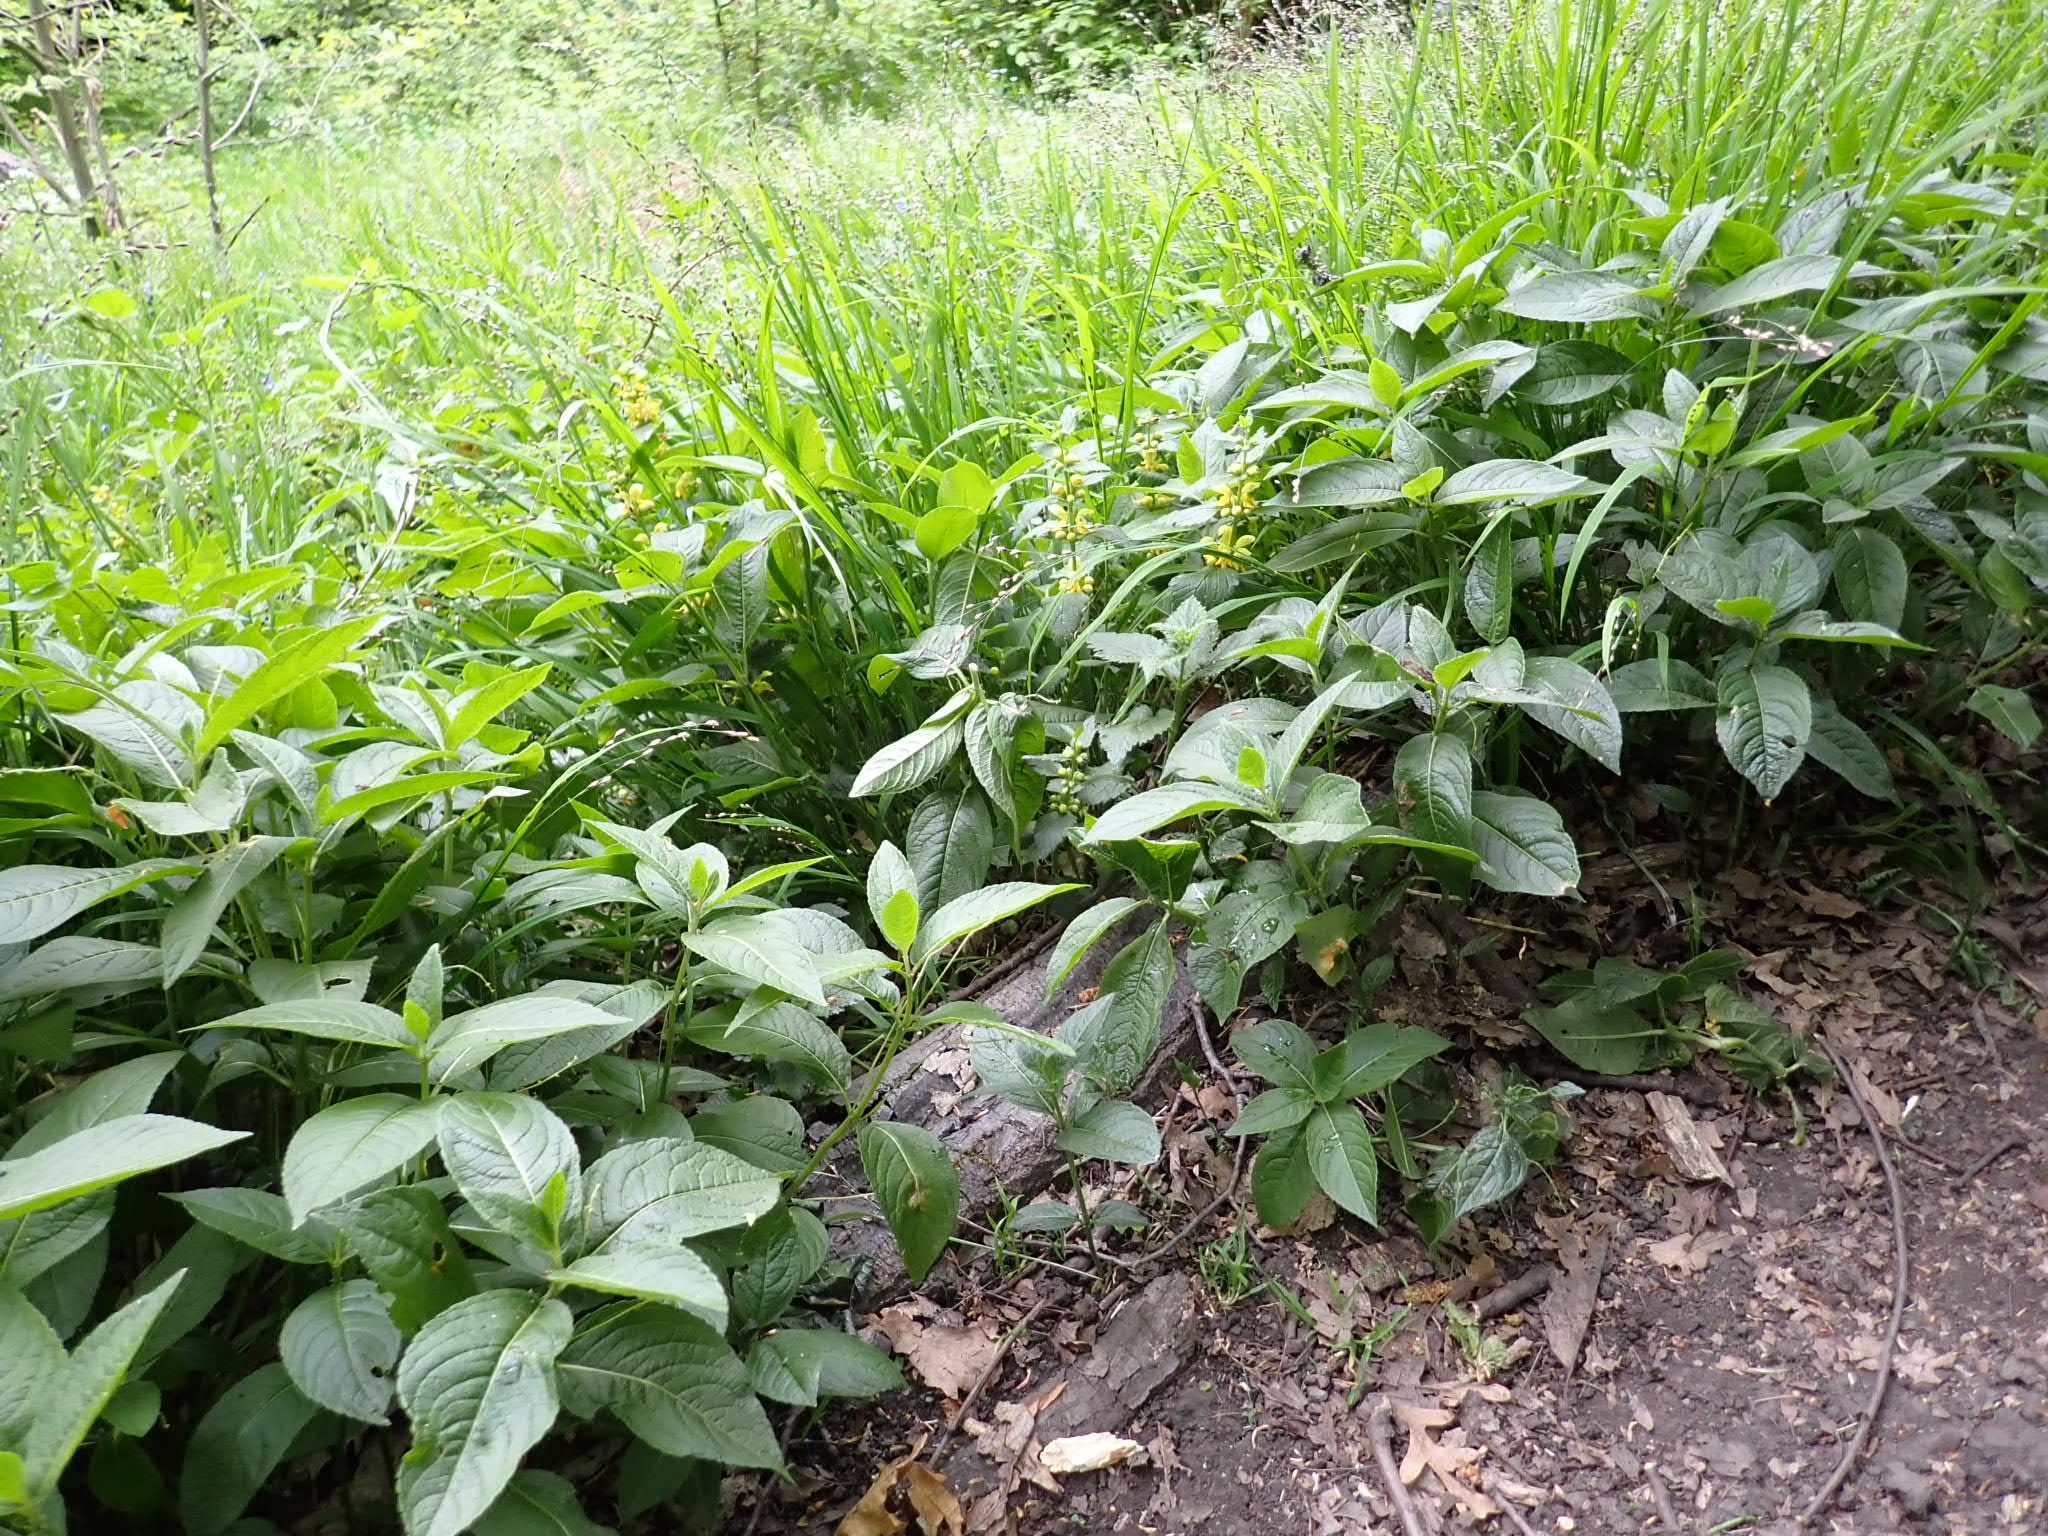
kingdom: Plantae
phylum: Tracheophyta
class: Magnoliopsida
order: Malpighiales
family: Euphorbiaceae
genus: Mercurialis
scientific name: Mercurialis perennis
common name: Dog mercury
